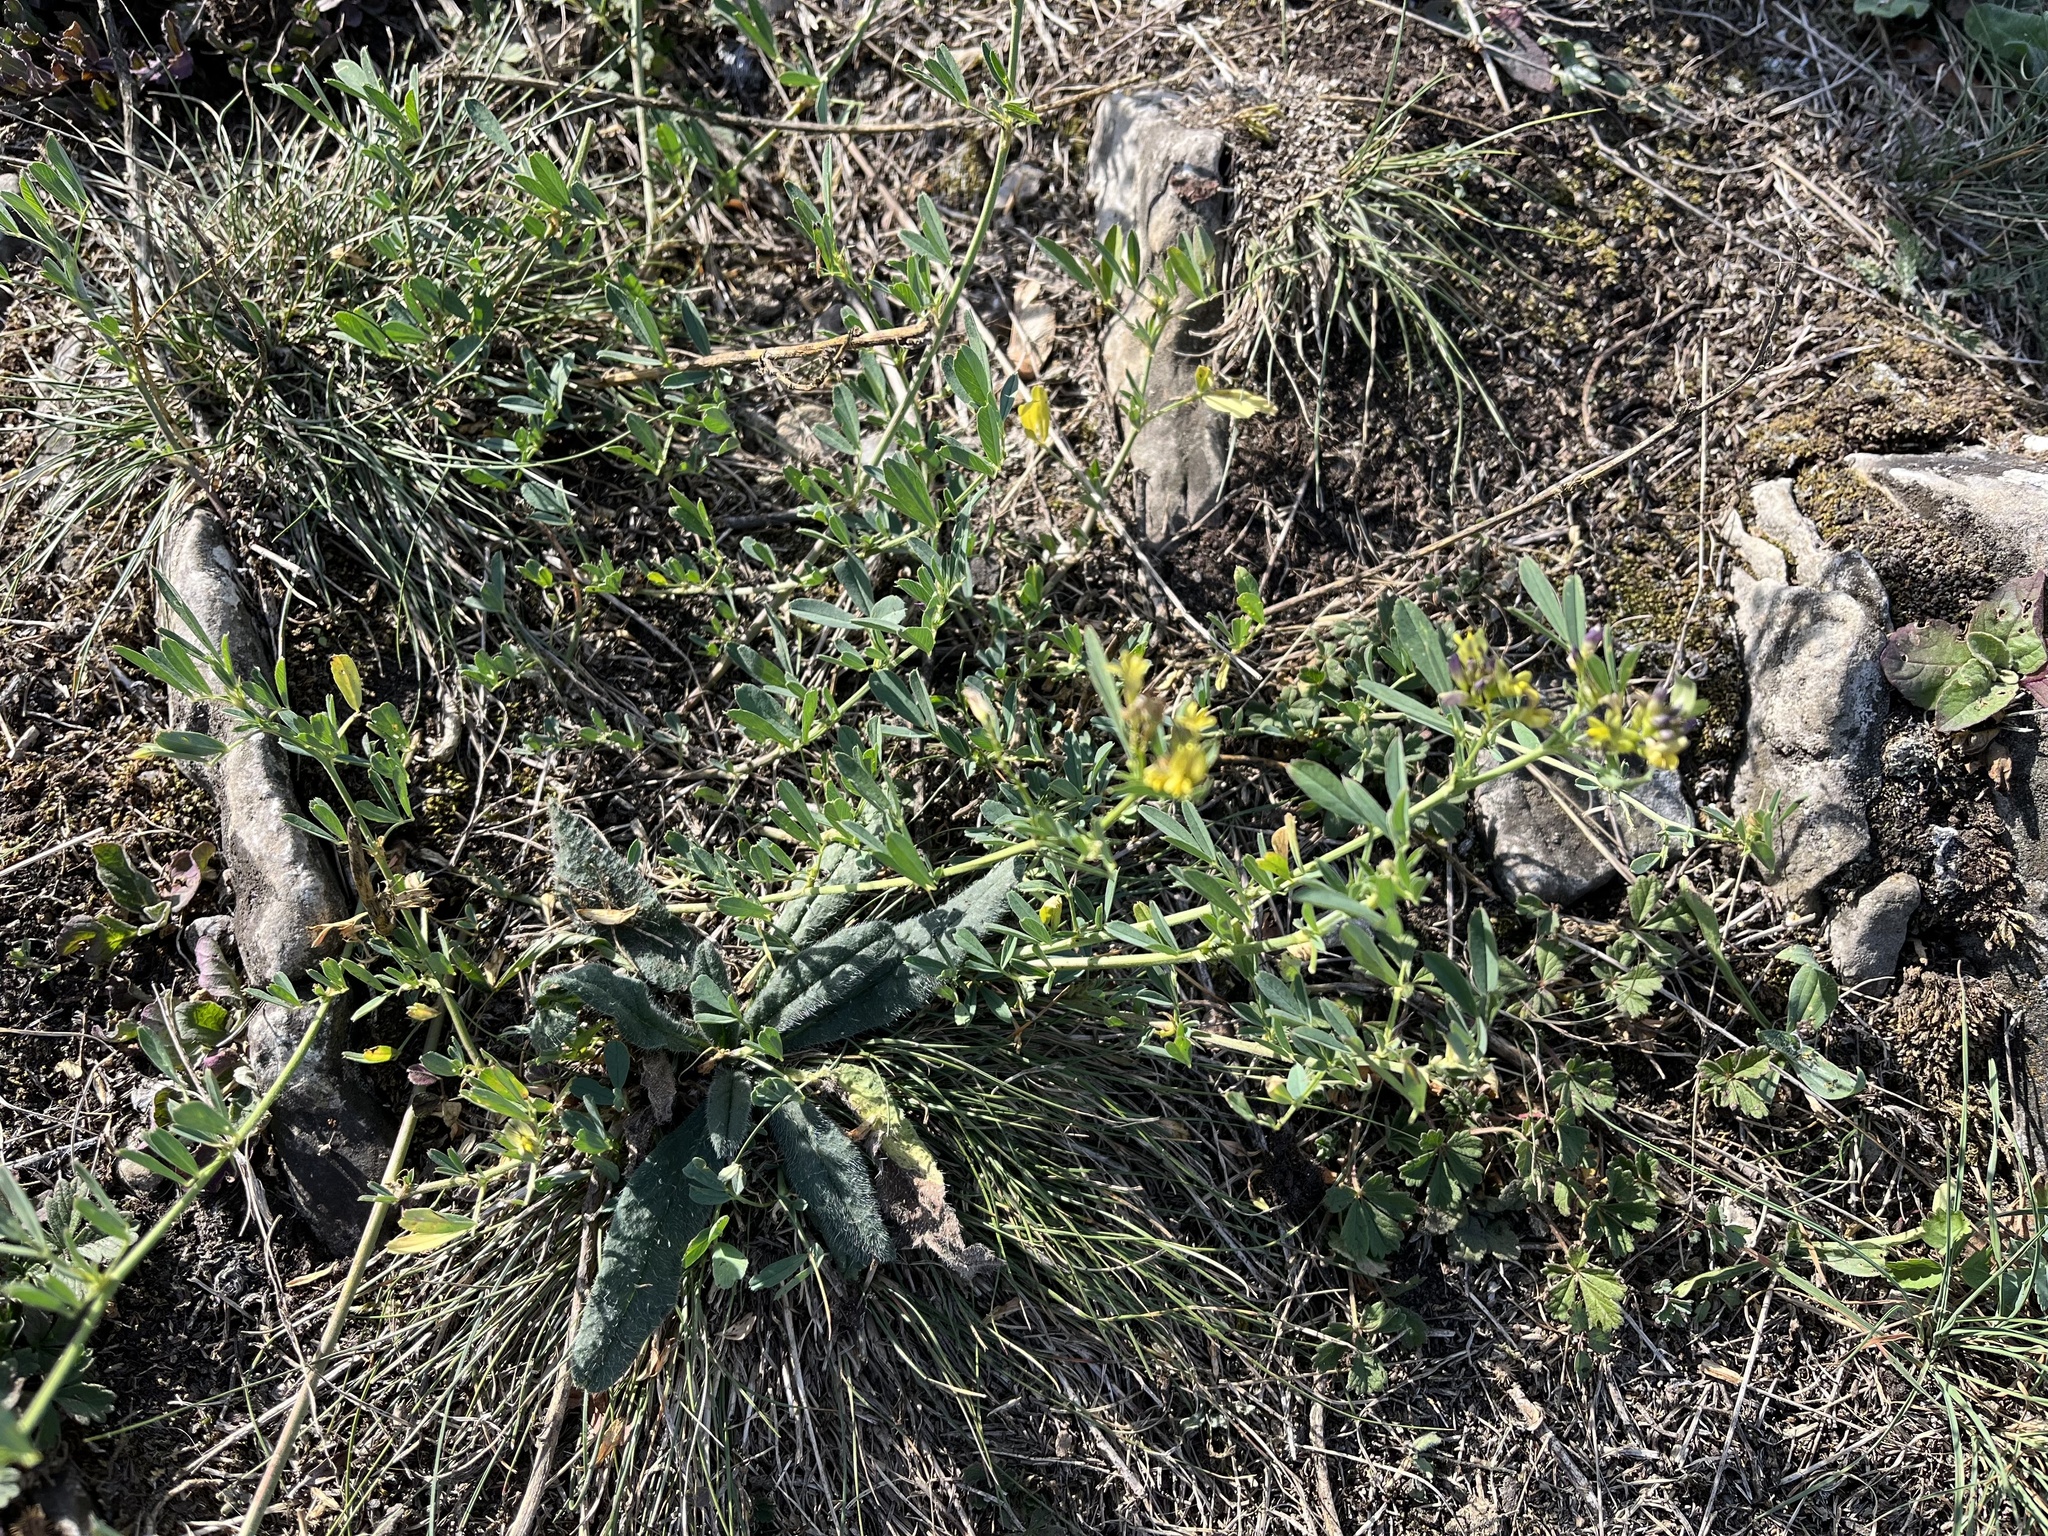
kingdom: Plantae
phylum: Tracheophyta
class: Magnoliopsida
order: Fabales
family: Fabaceae
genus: Medicago
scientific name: Medicago varia
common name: Sand lucerne
